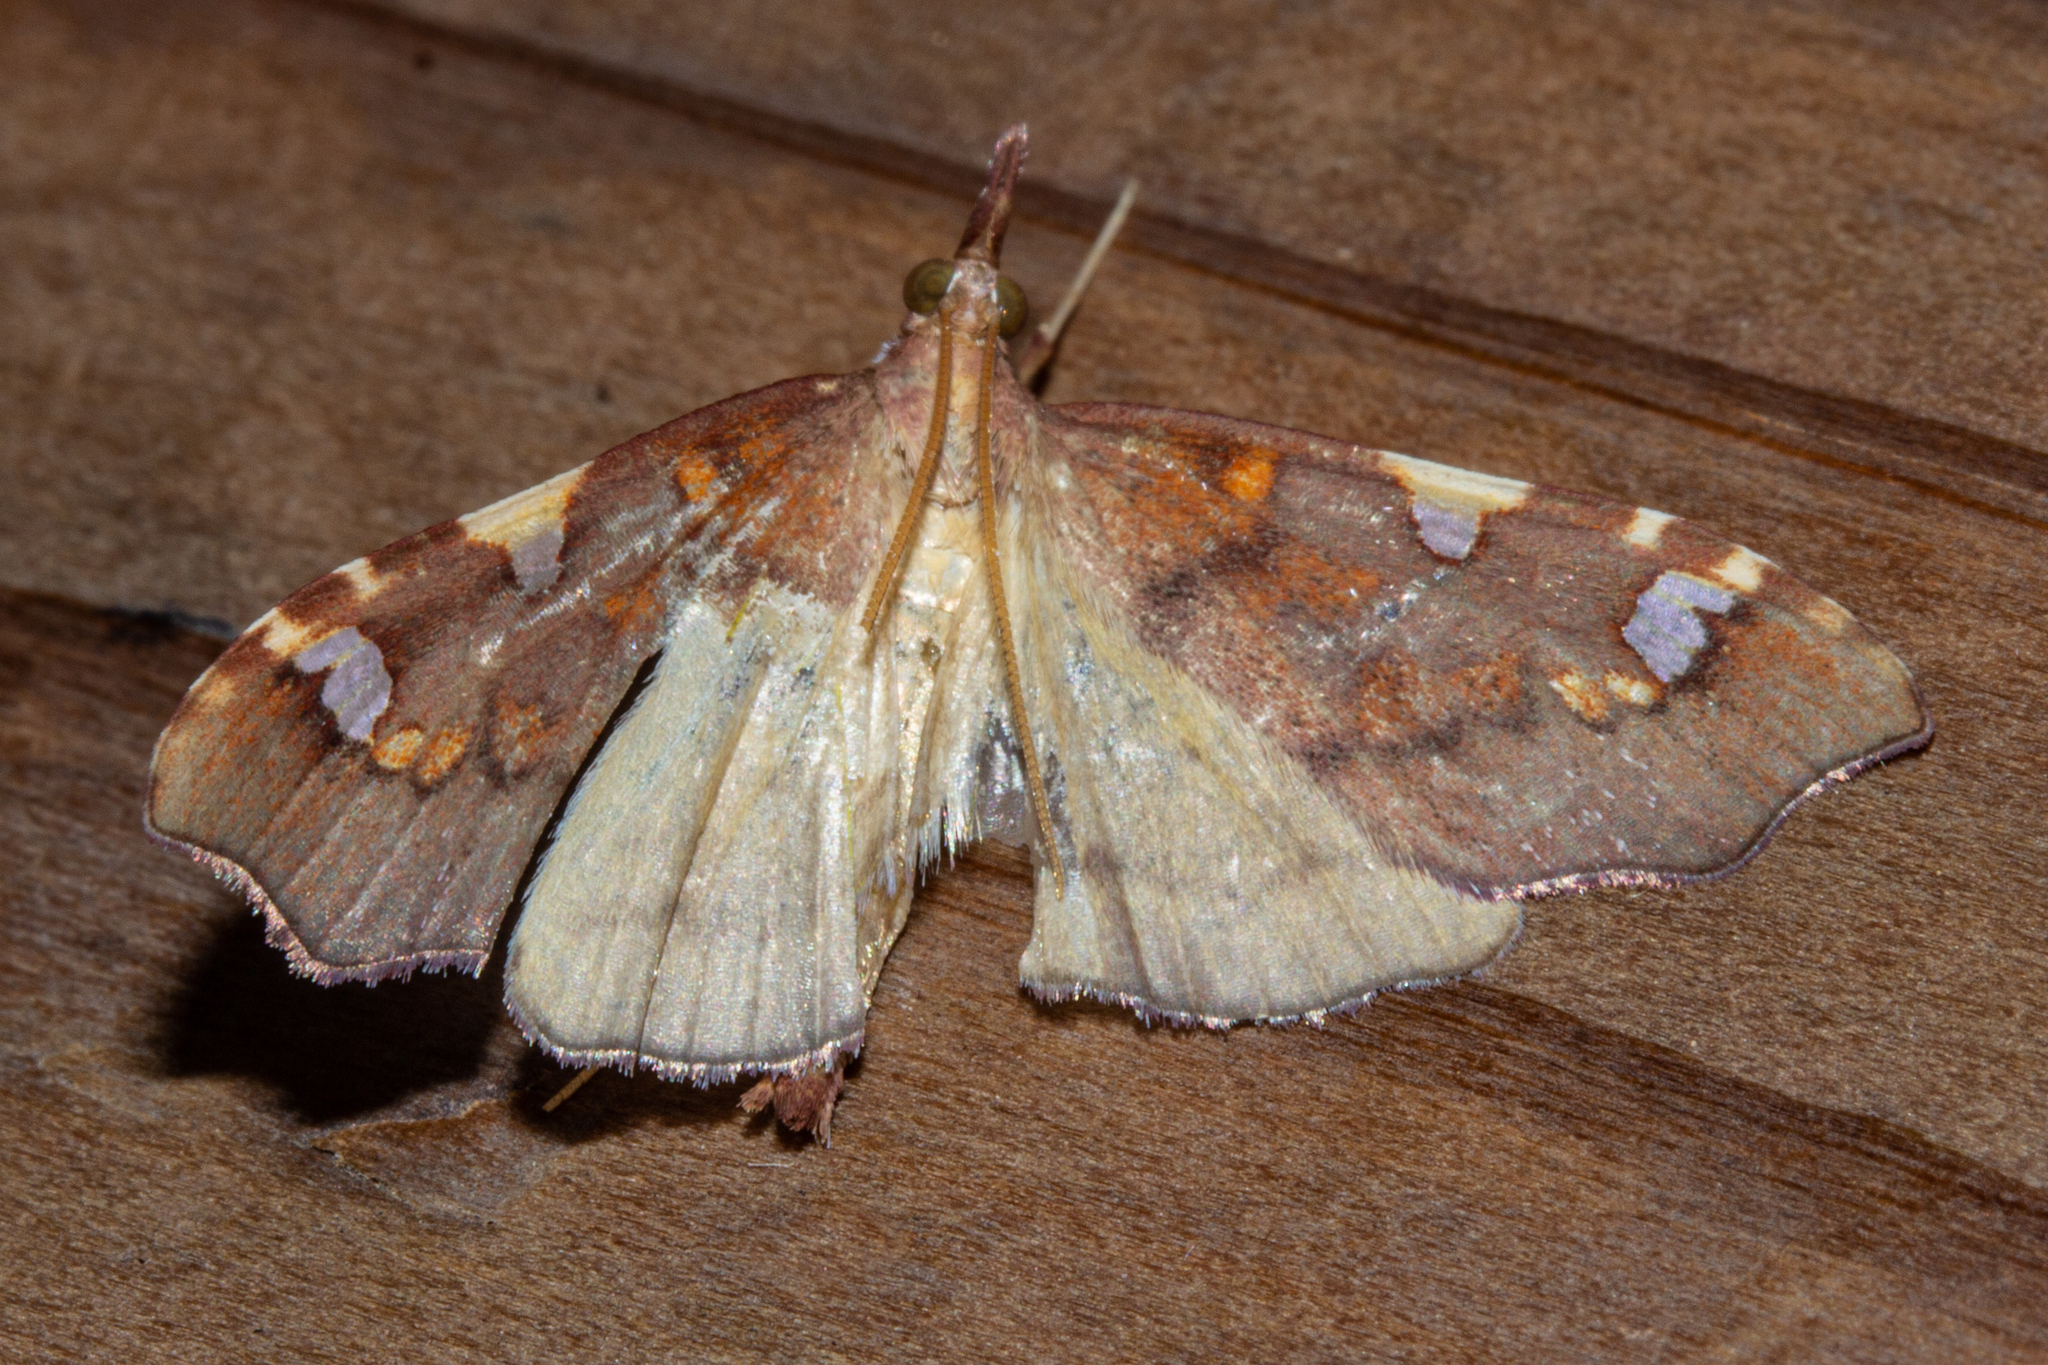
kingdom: Animalia
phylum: Arthropoda
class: Insecta
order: Lepidoptera
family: Crambidae
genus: Deana
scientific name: Deana hybreasalis
